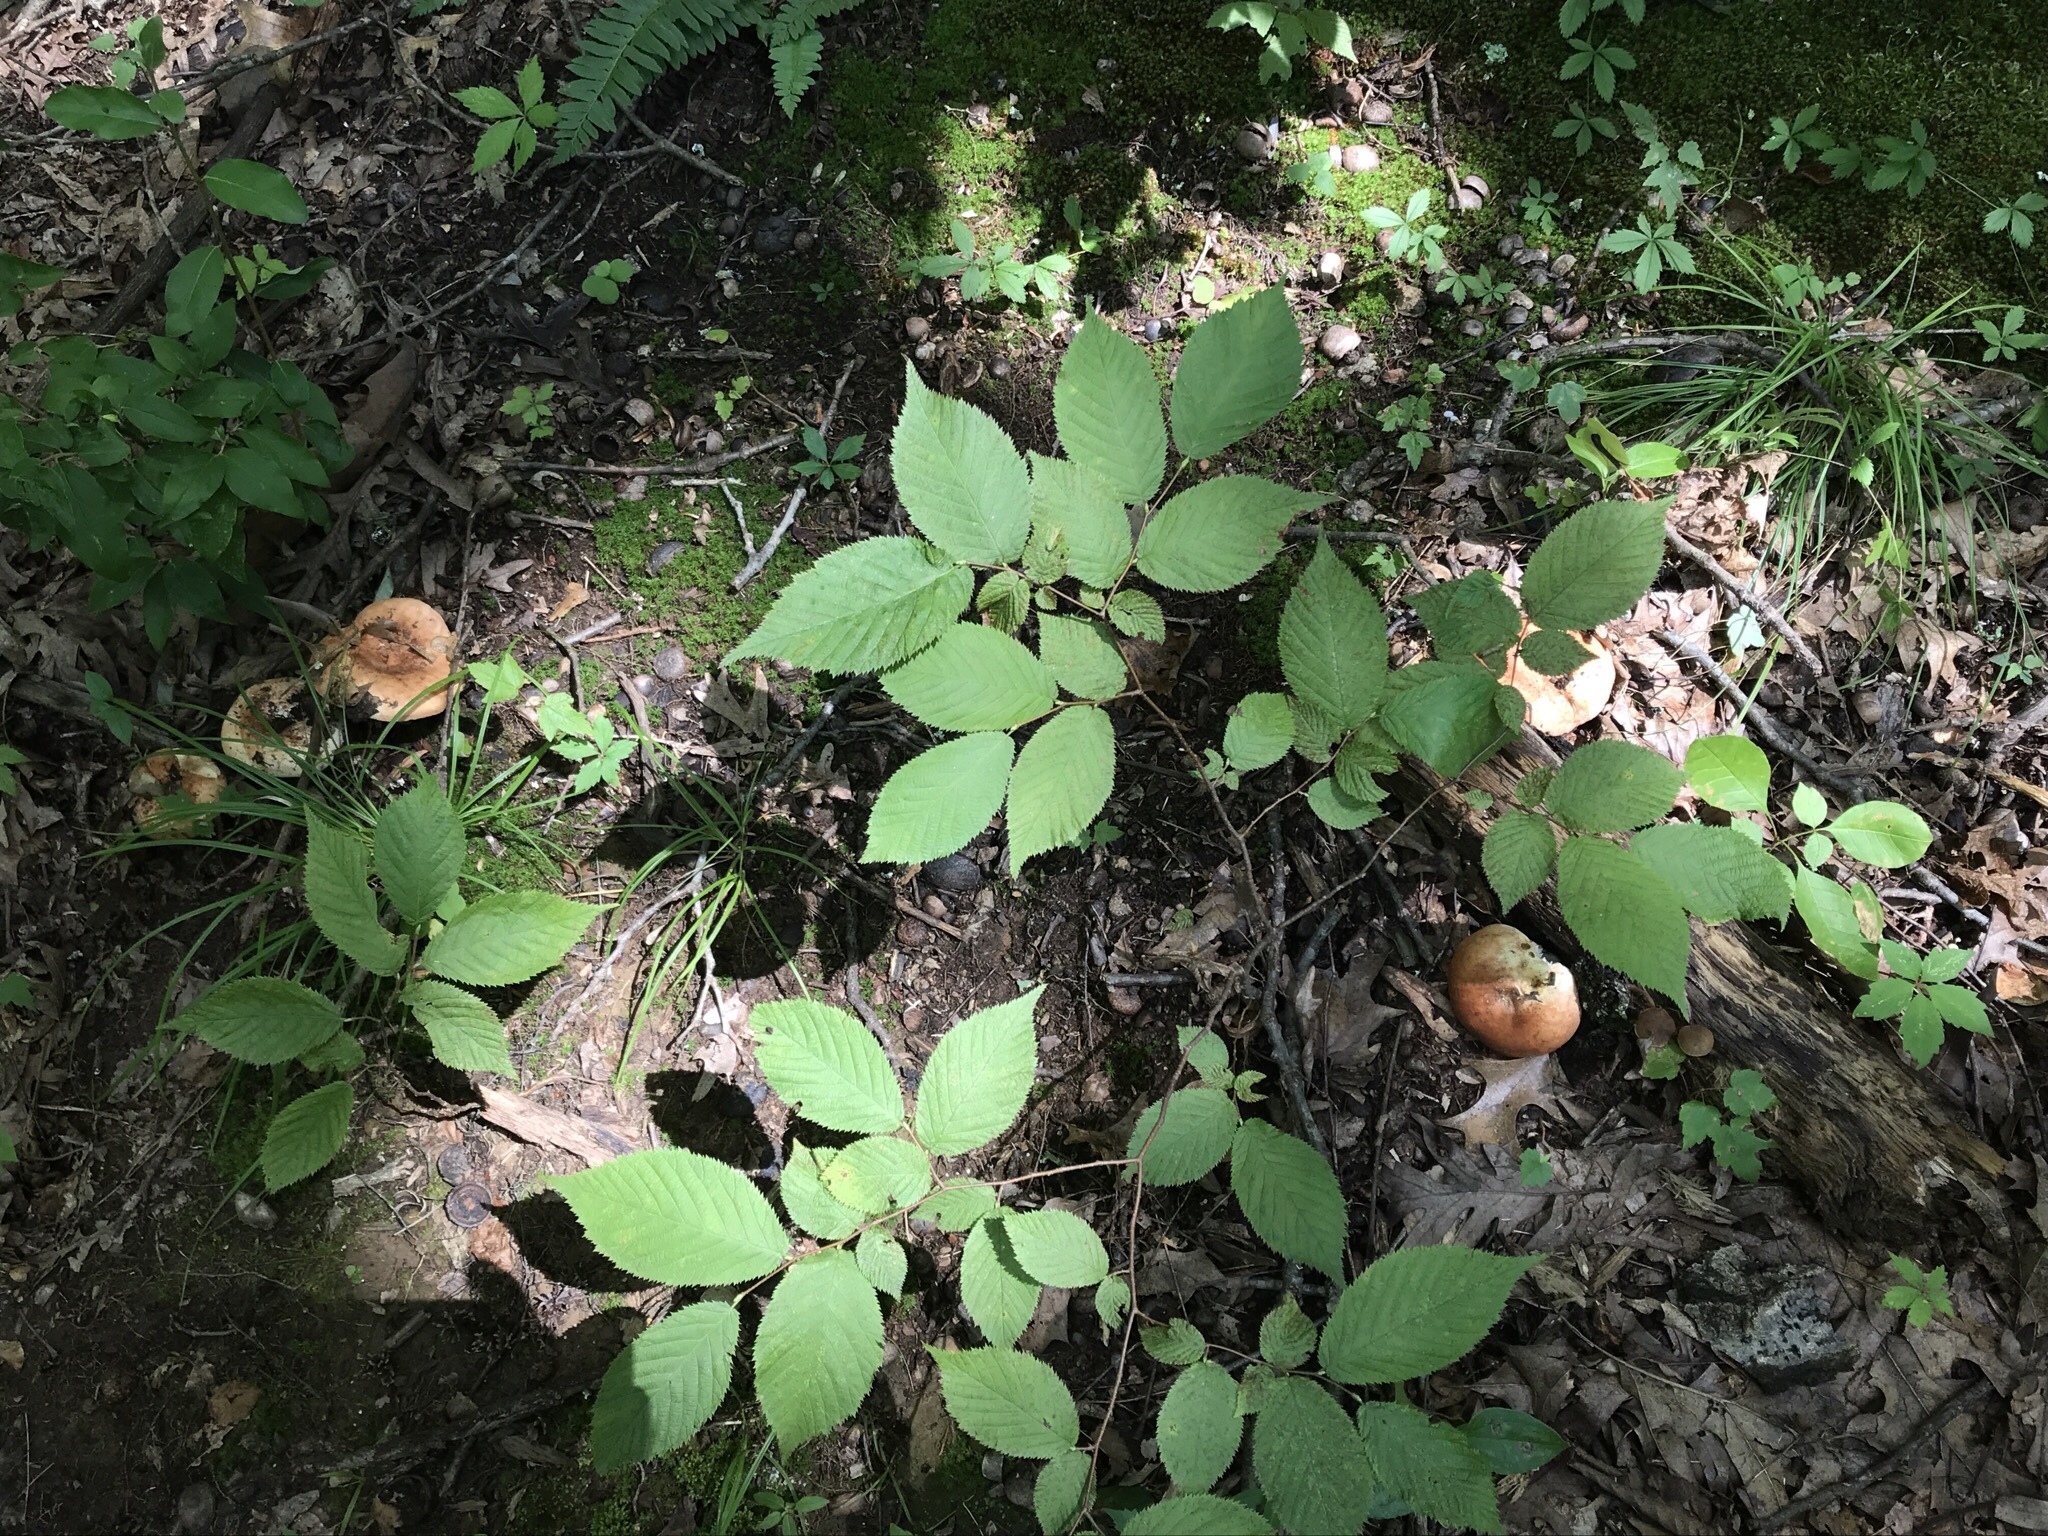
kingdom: Fungi
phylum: Basidiomycota
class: Agaricomycetes
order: Russulales
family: Russulaceae
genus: Russula
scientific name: Russula compacta
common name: Fishbiscuit russula
